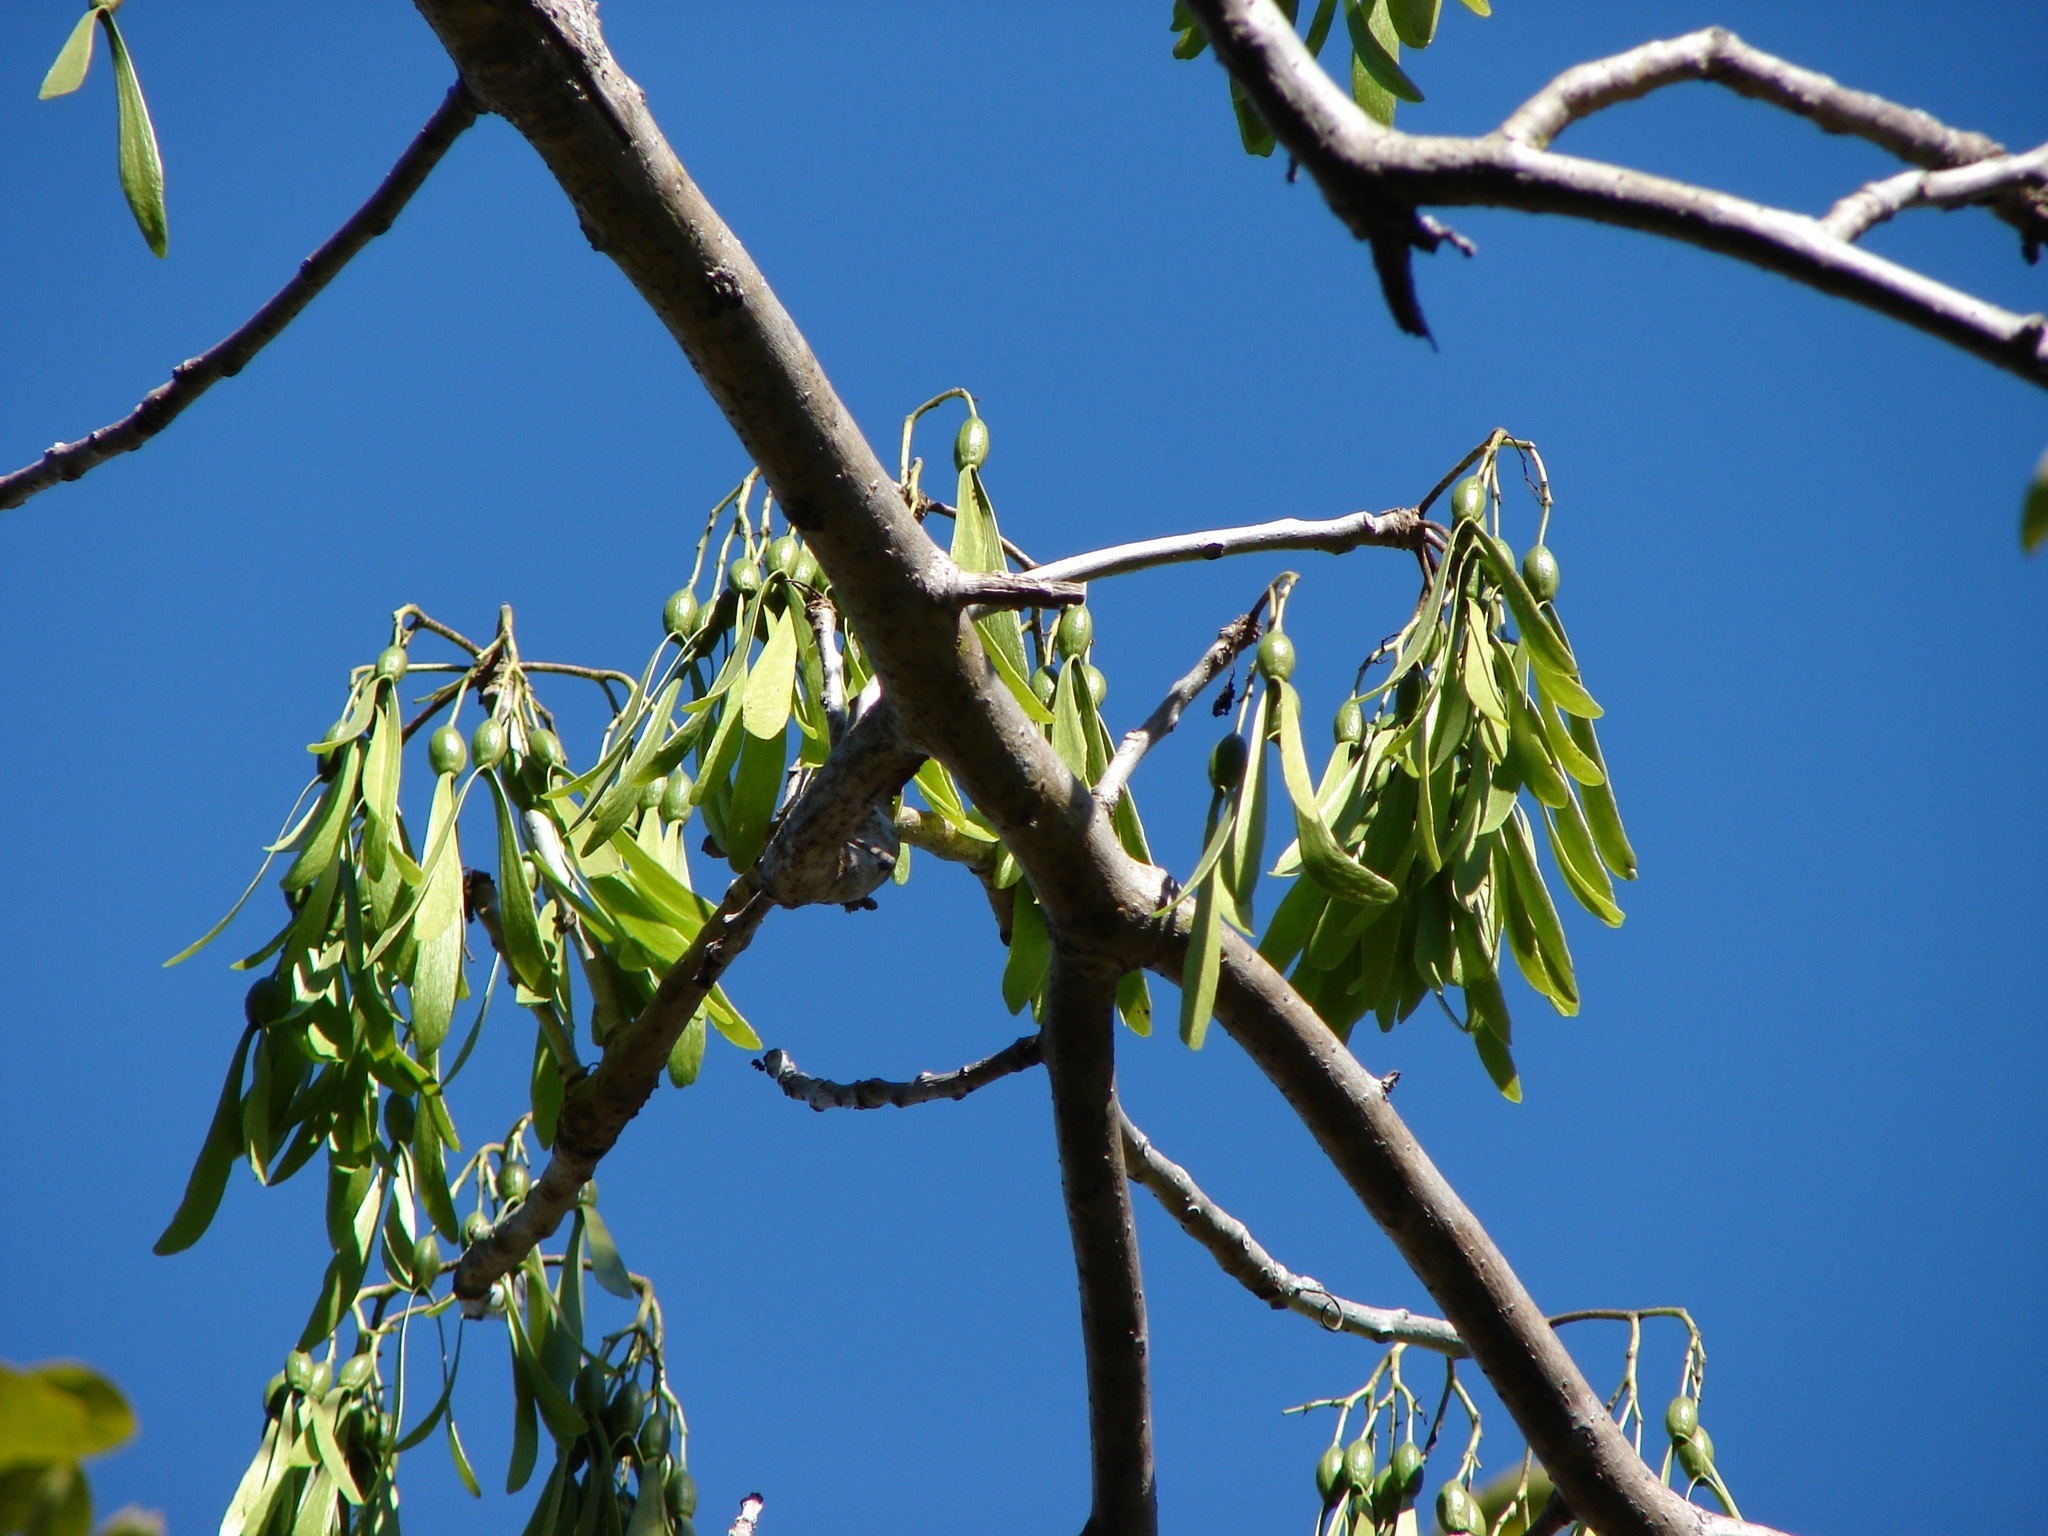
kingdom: Plantae
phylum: Tracheophyta
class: Magnoliopsida
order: Laurales
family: Hernandiaceae
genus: Gyrocarpus
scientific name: Gyrocarpus
